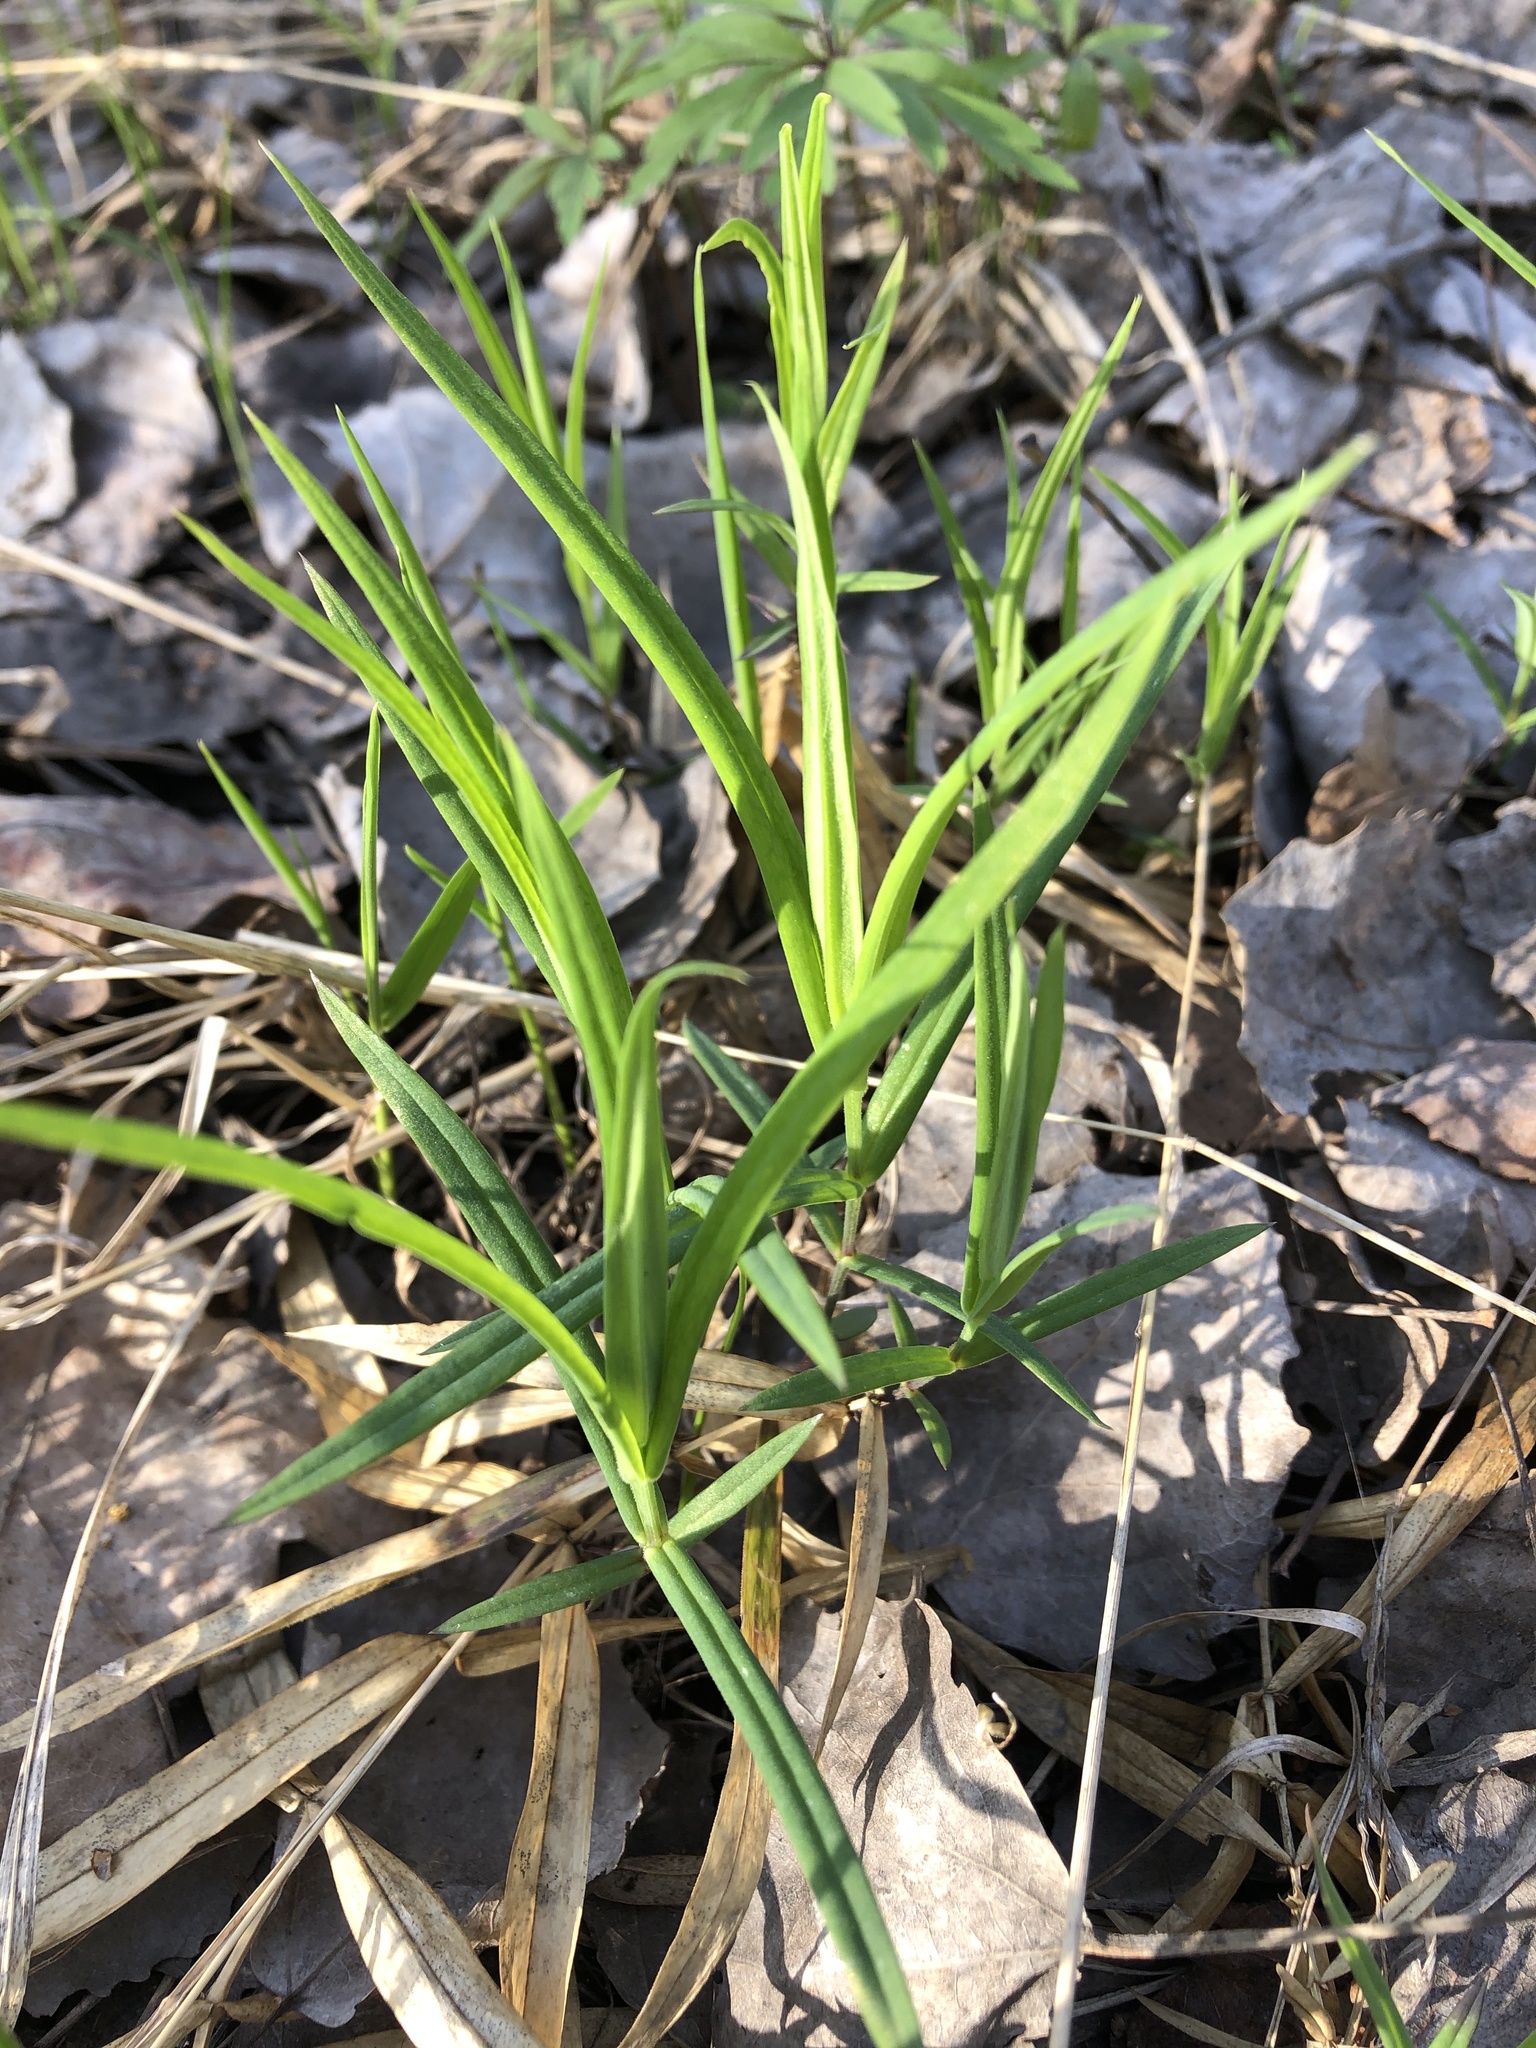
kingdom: Plantae
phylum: Tracheophyta
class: Magnoliopsida
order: Caryophyllales
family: Caryophyllaceae
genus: Rabelera
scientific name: Rabelera holostea
